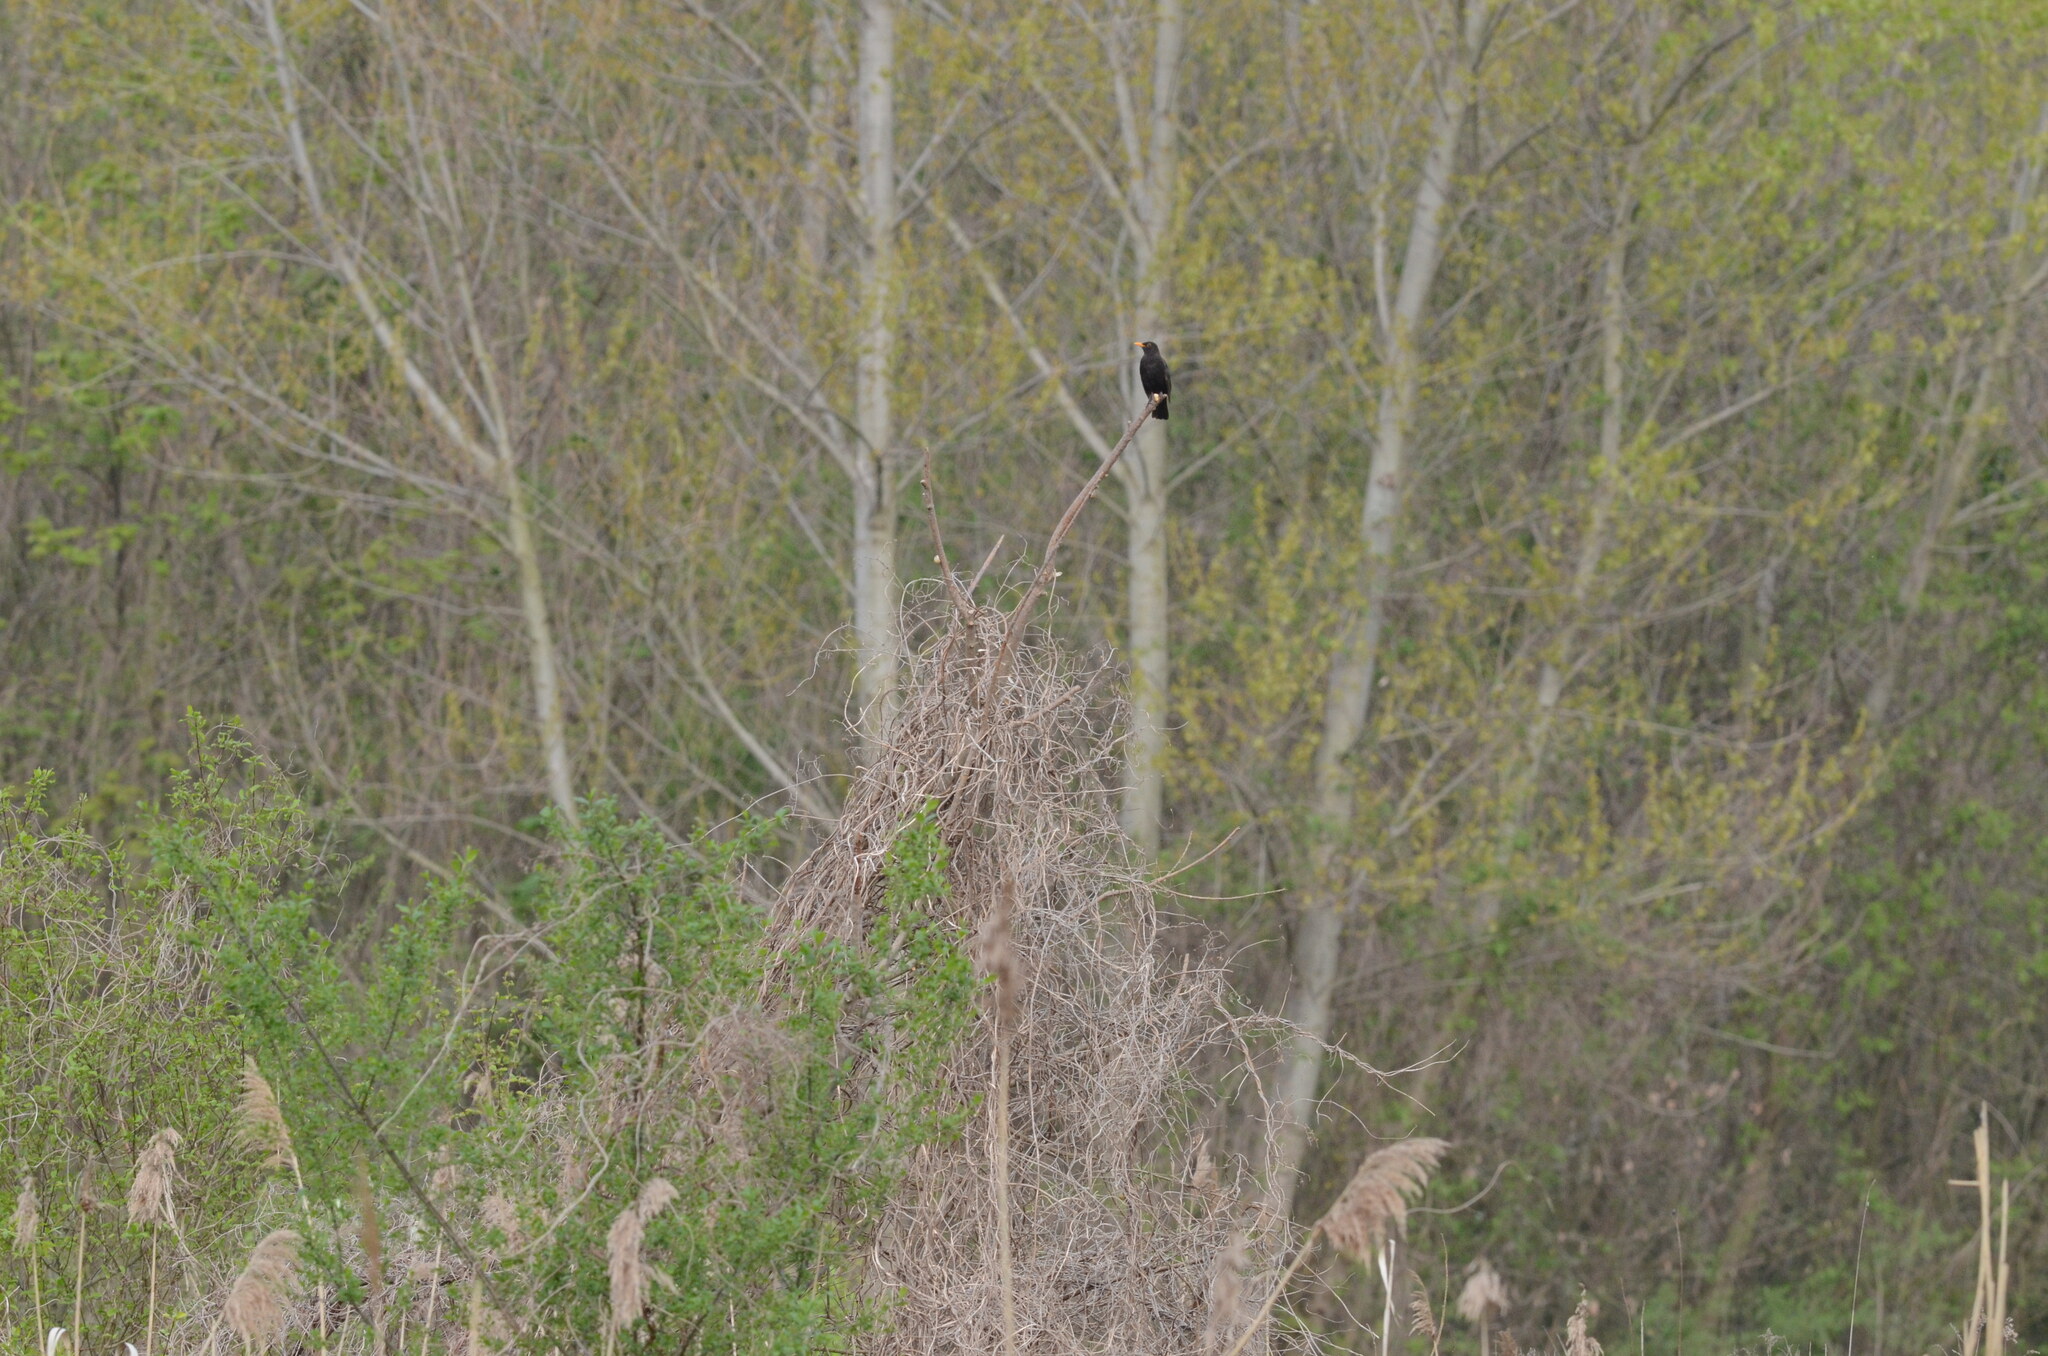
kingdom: Animalia
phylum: Chordata
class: Aves
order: Passeriformes
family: Turdidae
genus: Turdus
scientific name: Turdus merula
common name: Common blackbird
